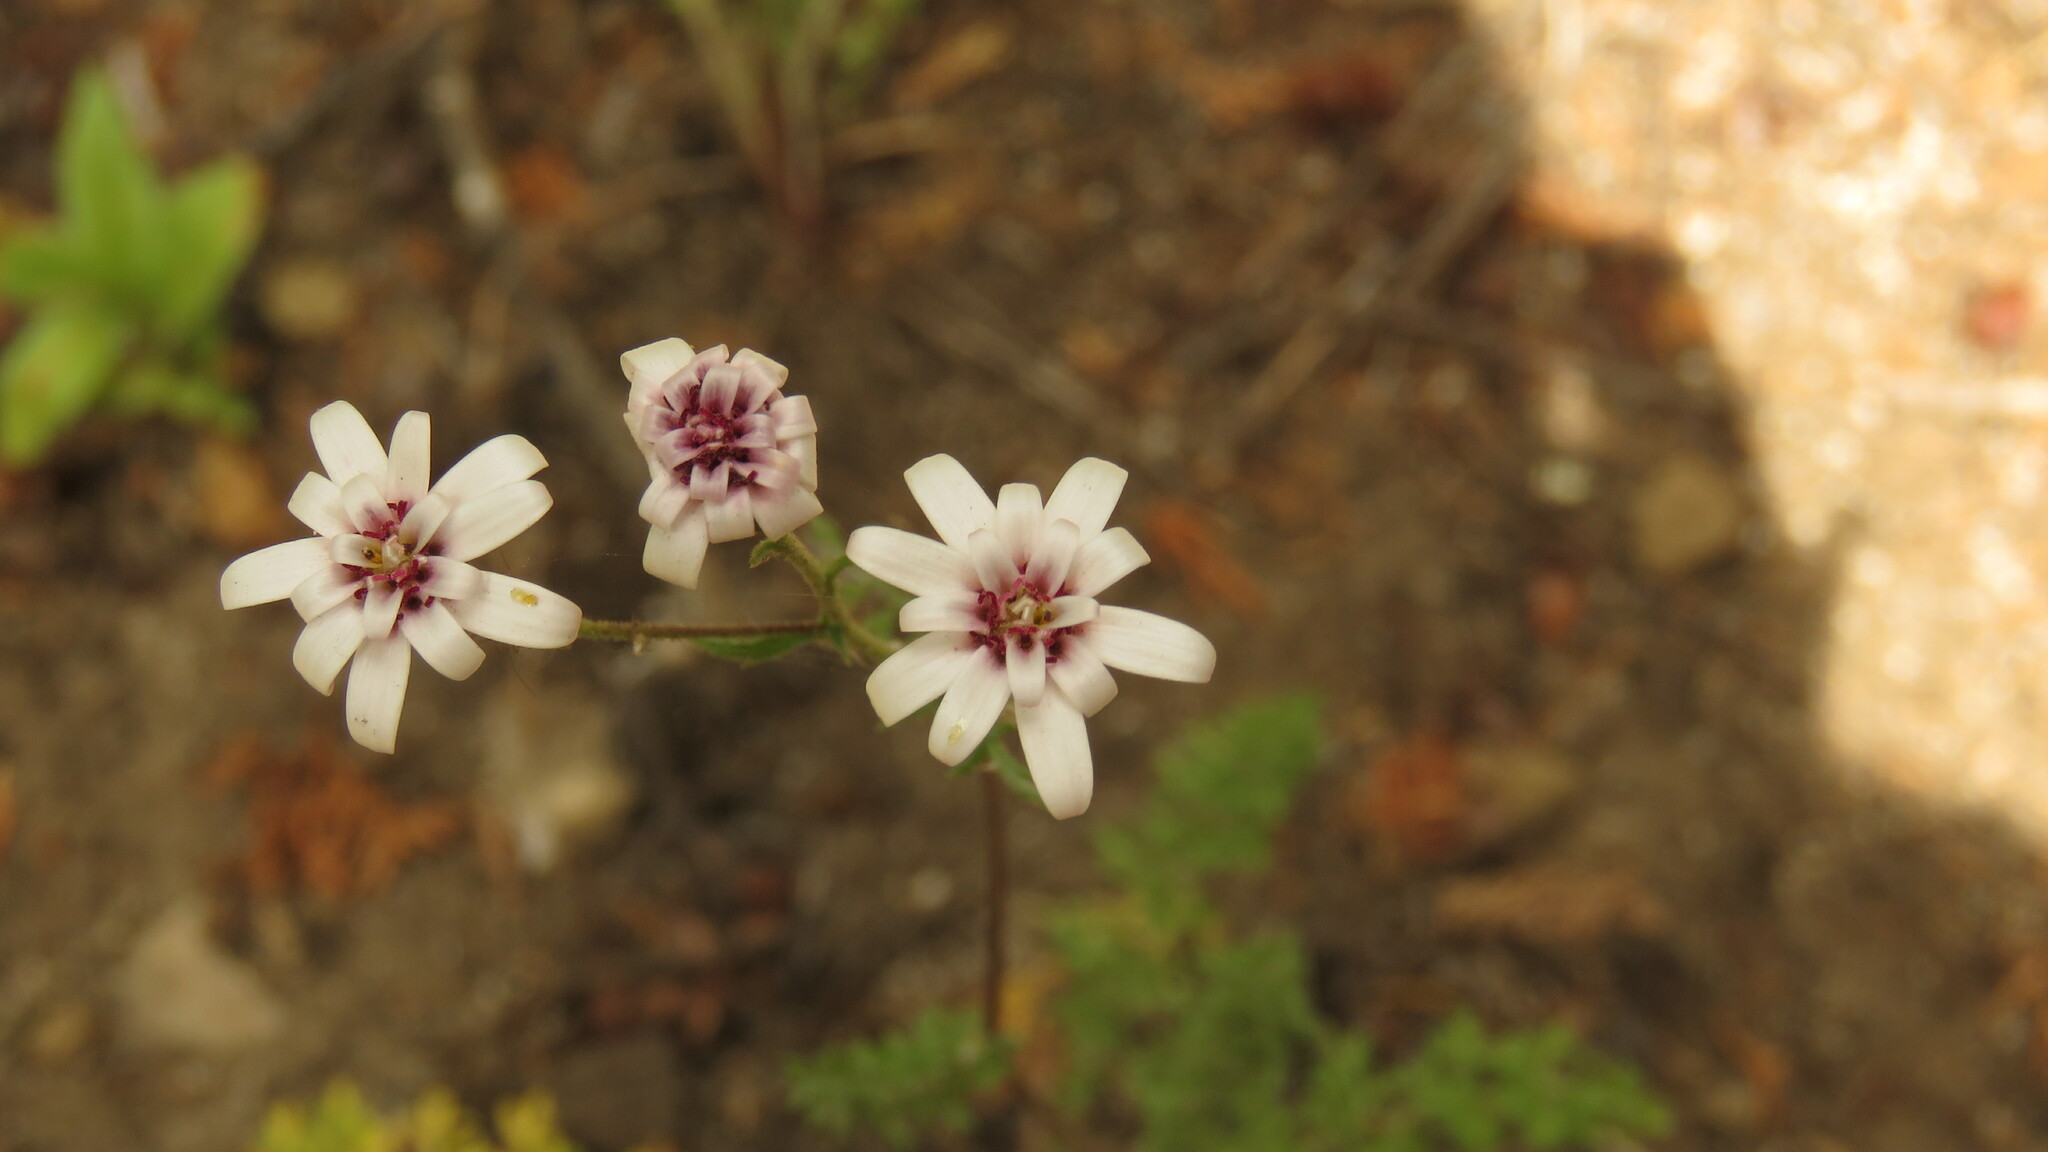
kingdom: Plantae
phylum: Tracheophyta
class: Magnoliopsida
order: Asterales
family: Asteraceae
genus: Leucheria
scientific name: Leucheria achillaeifolia
